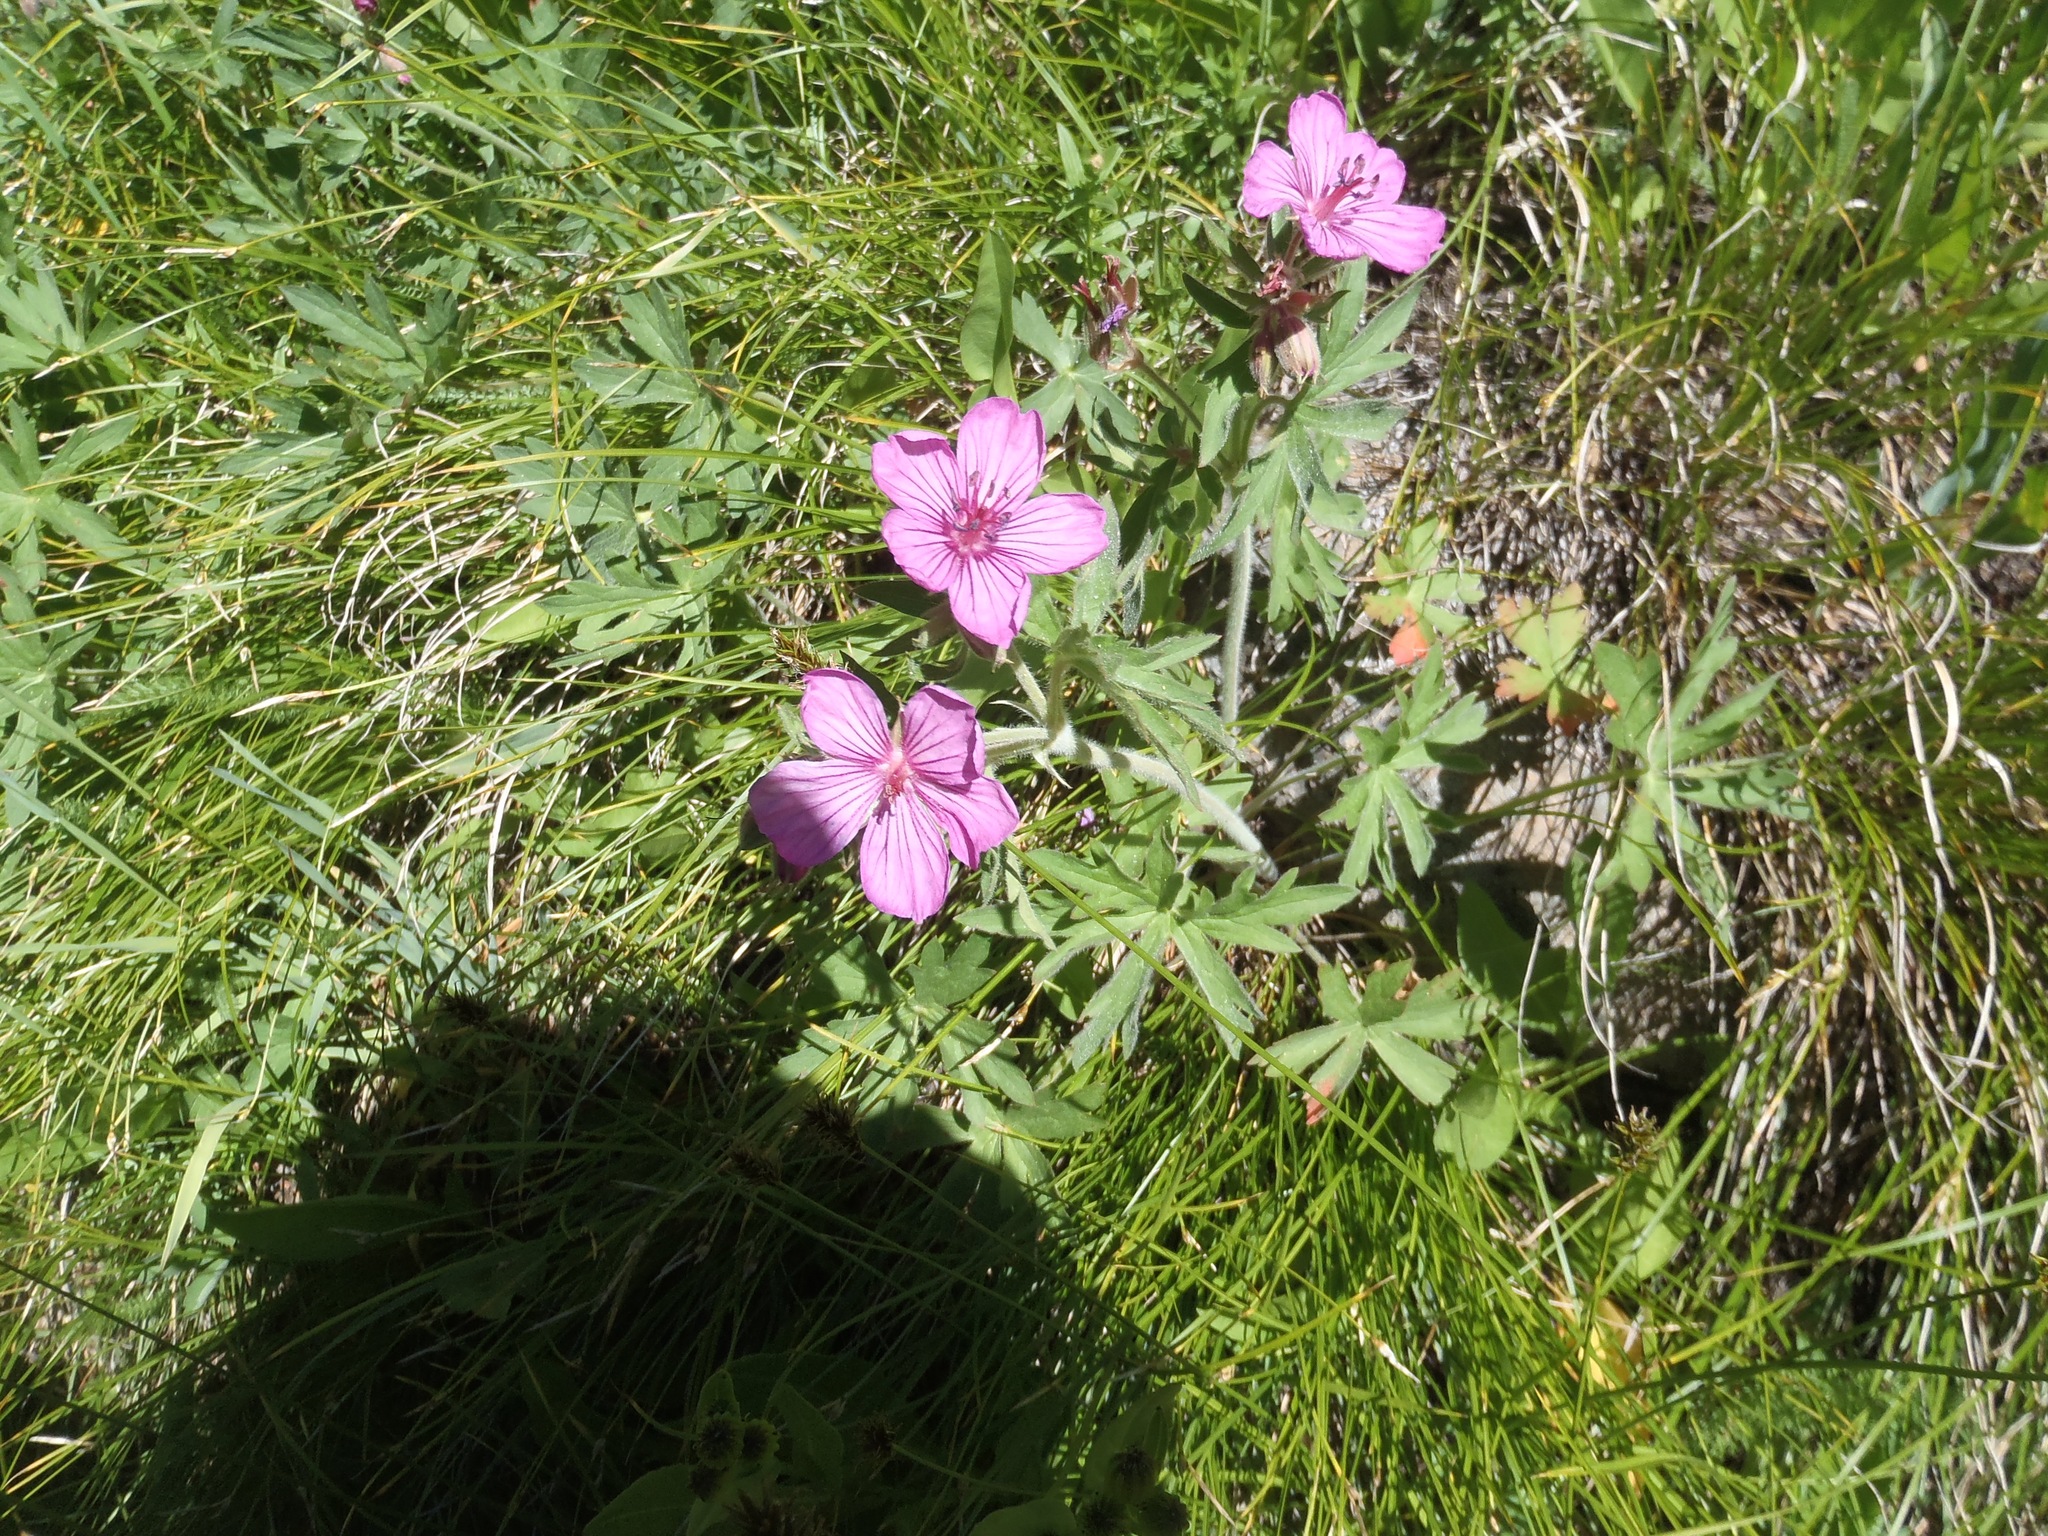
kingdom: Plantae
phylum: Tracheophyta
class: Magnoliopsida
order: Geraniales
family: Geraniaceae
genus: Geranium
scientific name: Geranium viscosissimum
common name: Purple geranium
